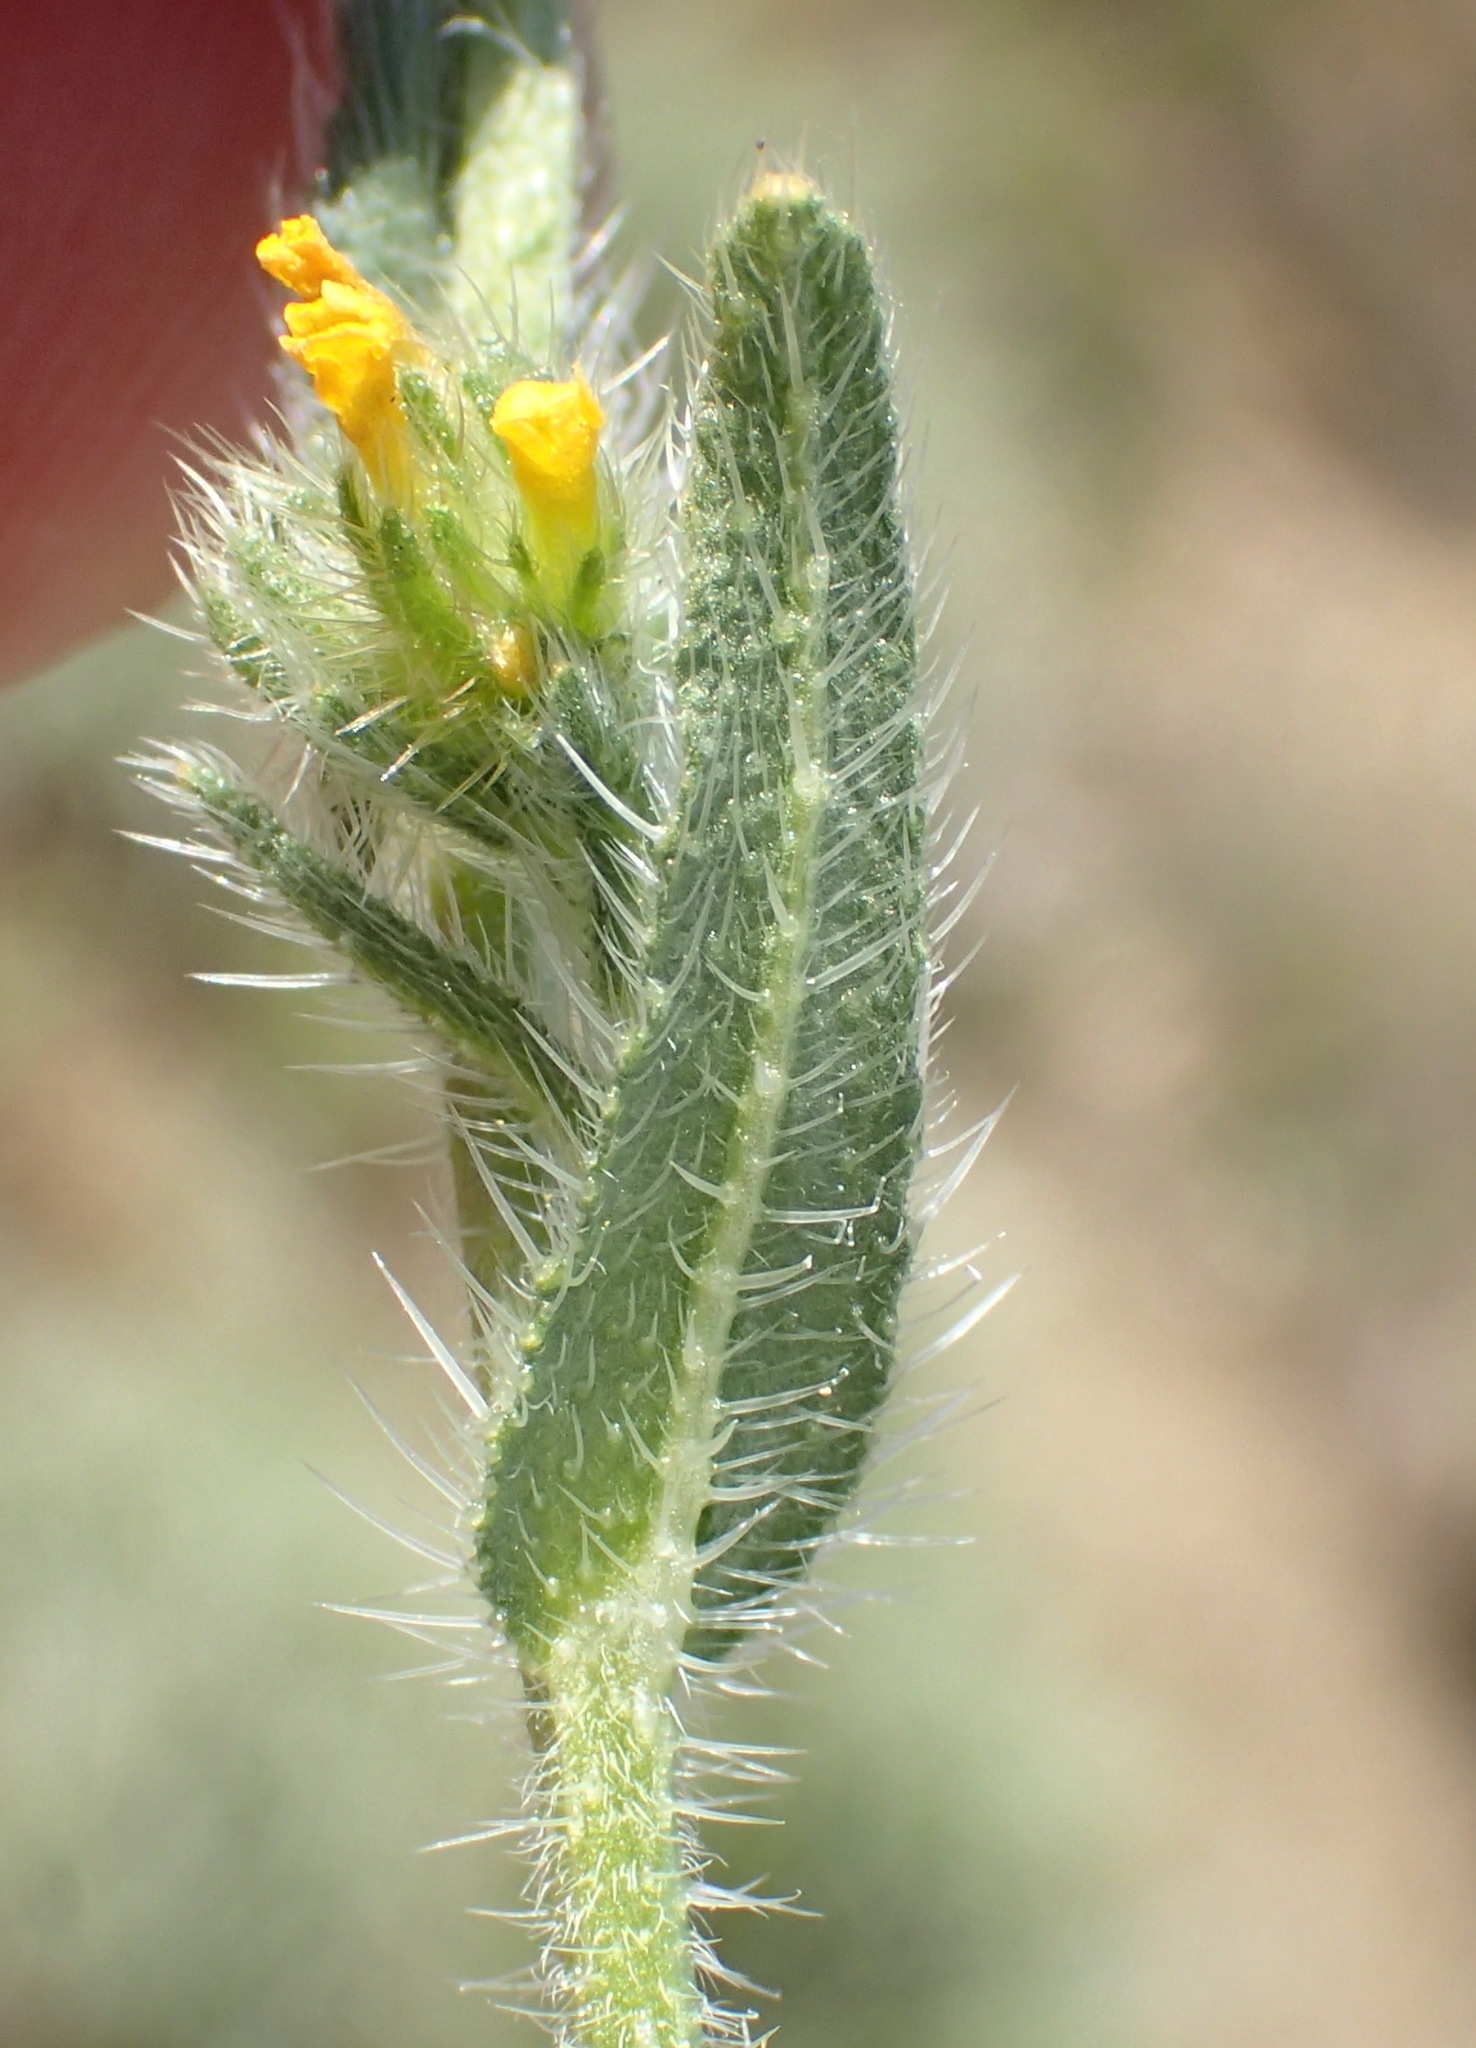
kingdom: Plantae
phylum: Tracheophyta
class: Magnoliopsida
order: Boraginales
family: Boraginaceae
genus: Amsinckia
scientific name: Amsinckia menziesii
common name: Menzies' fiddleneck
